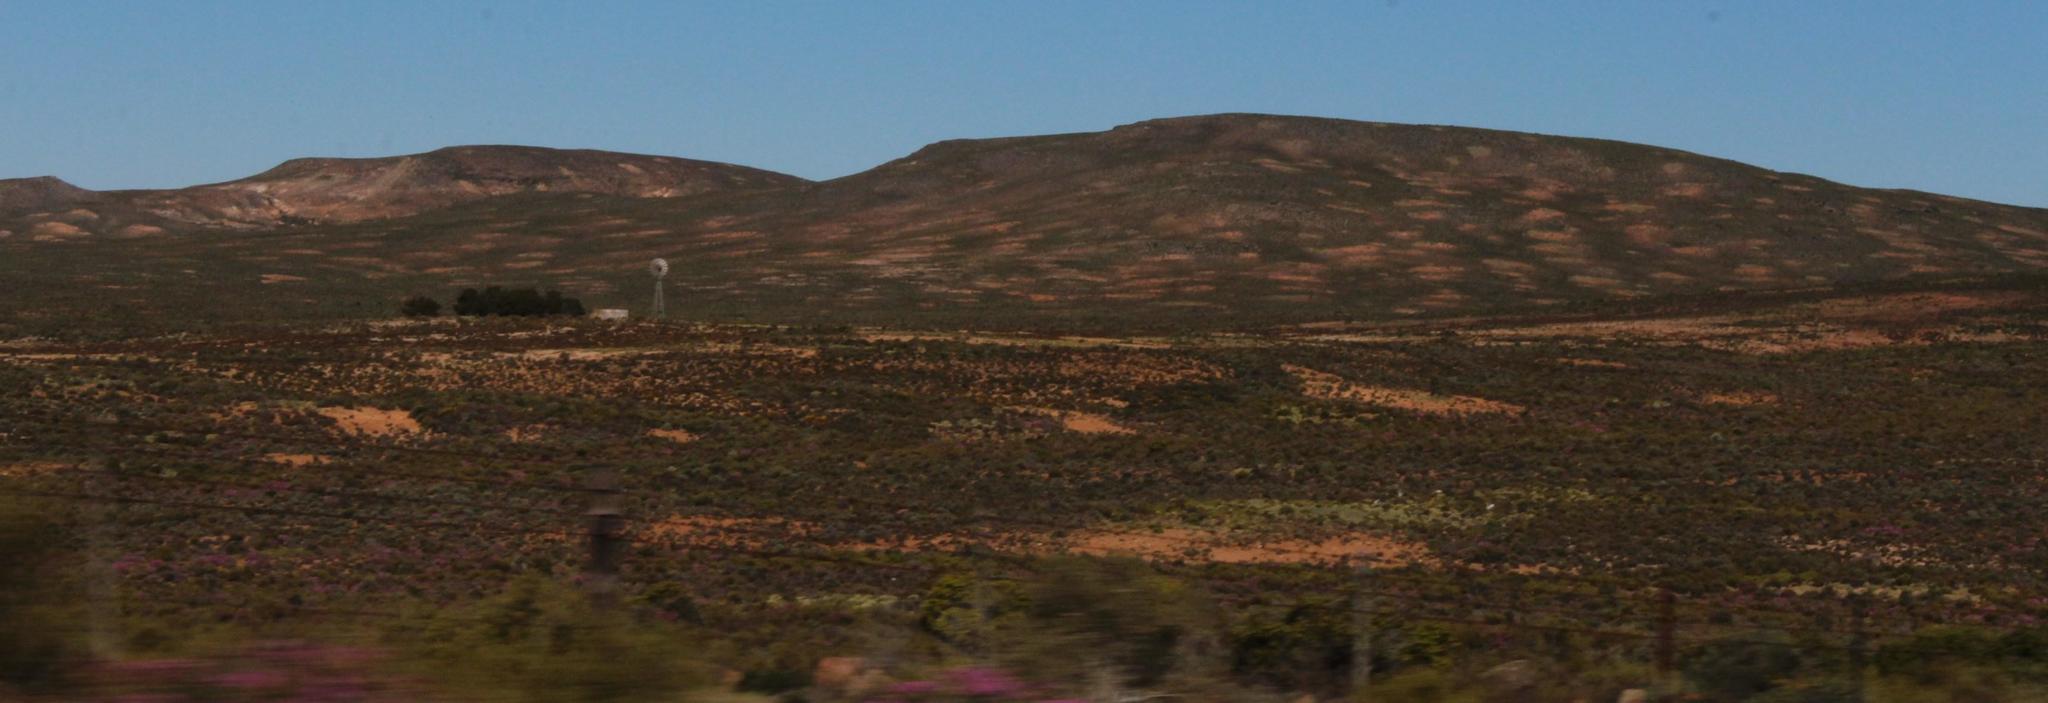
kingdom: Animalia
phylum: Arthropoda
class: Insecta
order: Blattodea
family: Hodotermitidae
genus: Microhodotermes
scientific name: Microhodotermes viator
